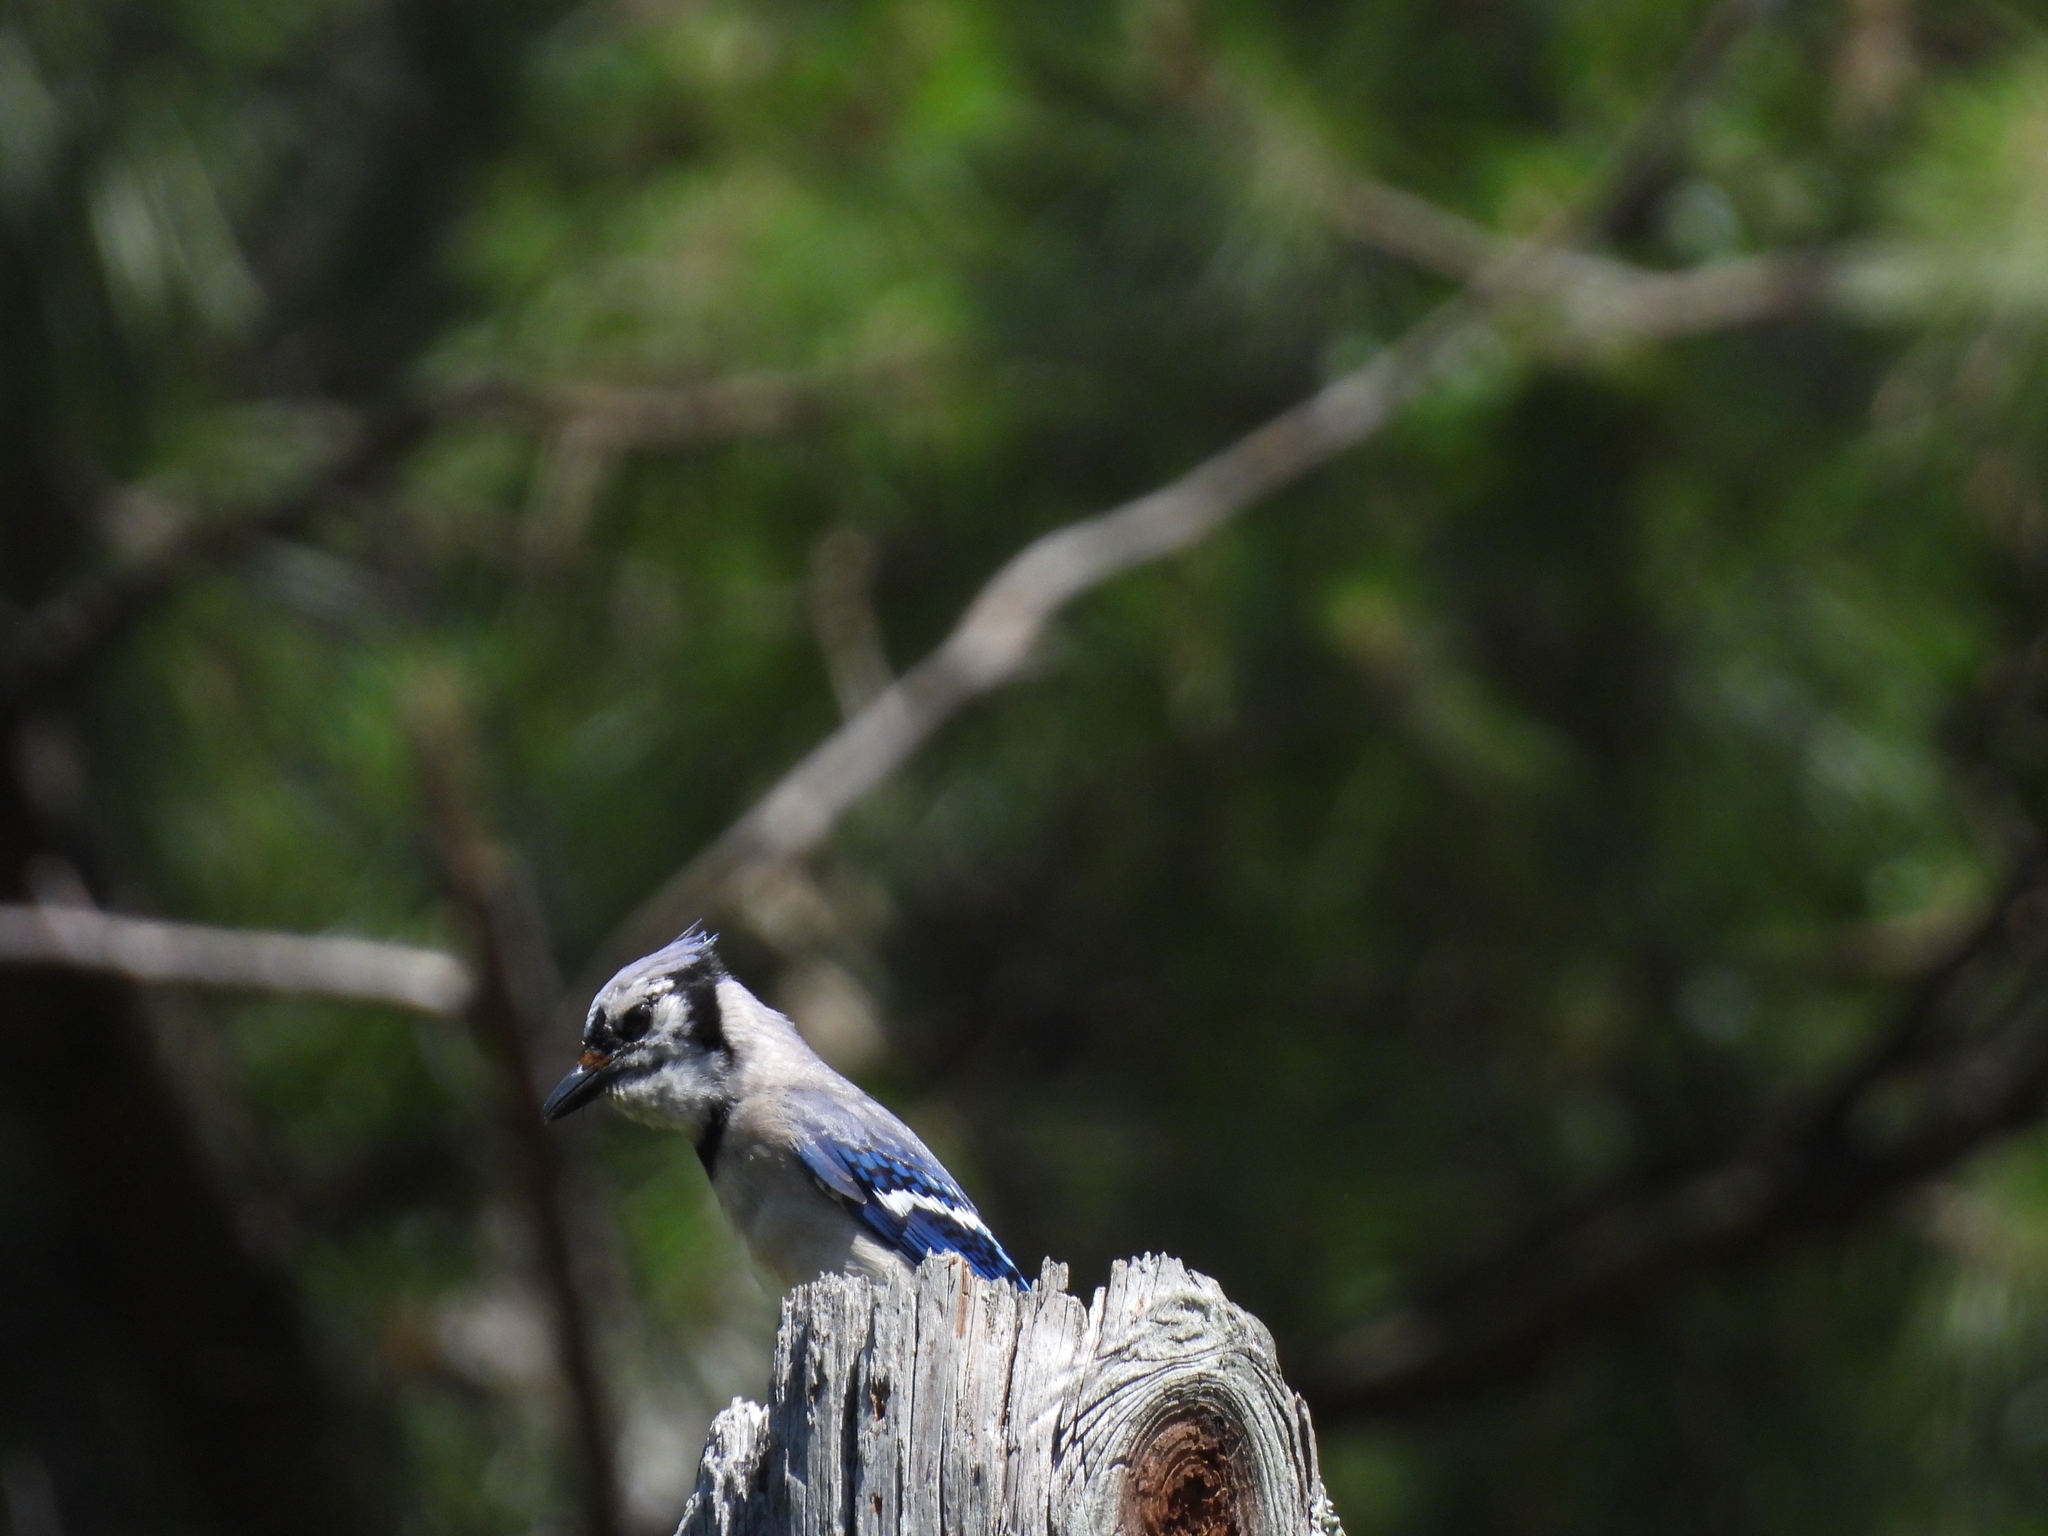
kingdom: Animalia
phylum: Chordata
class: Aves
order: Passeriformes
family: Corvidae
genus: Cyanocitta
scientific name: Cyanocitta cristata
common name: Blue jay
